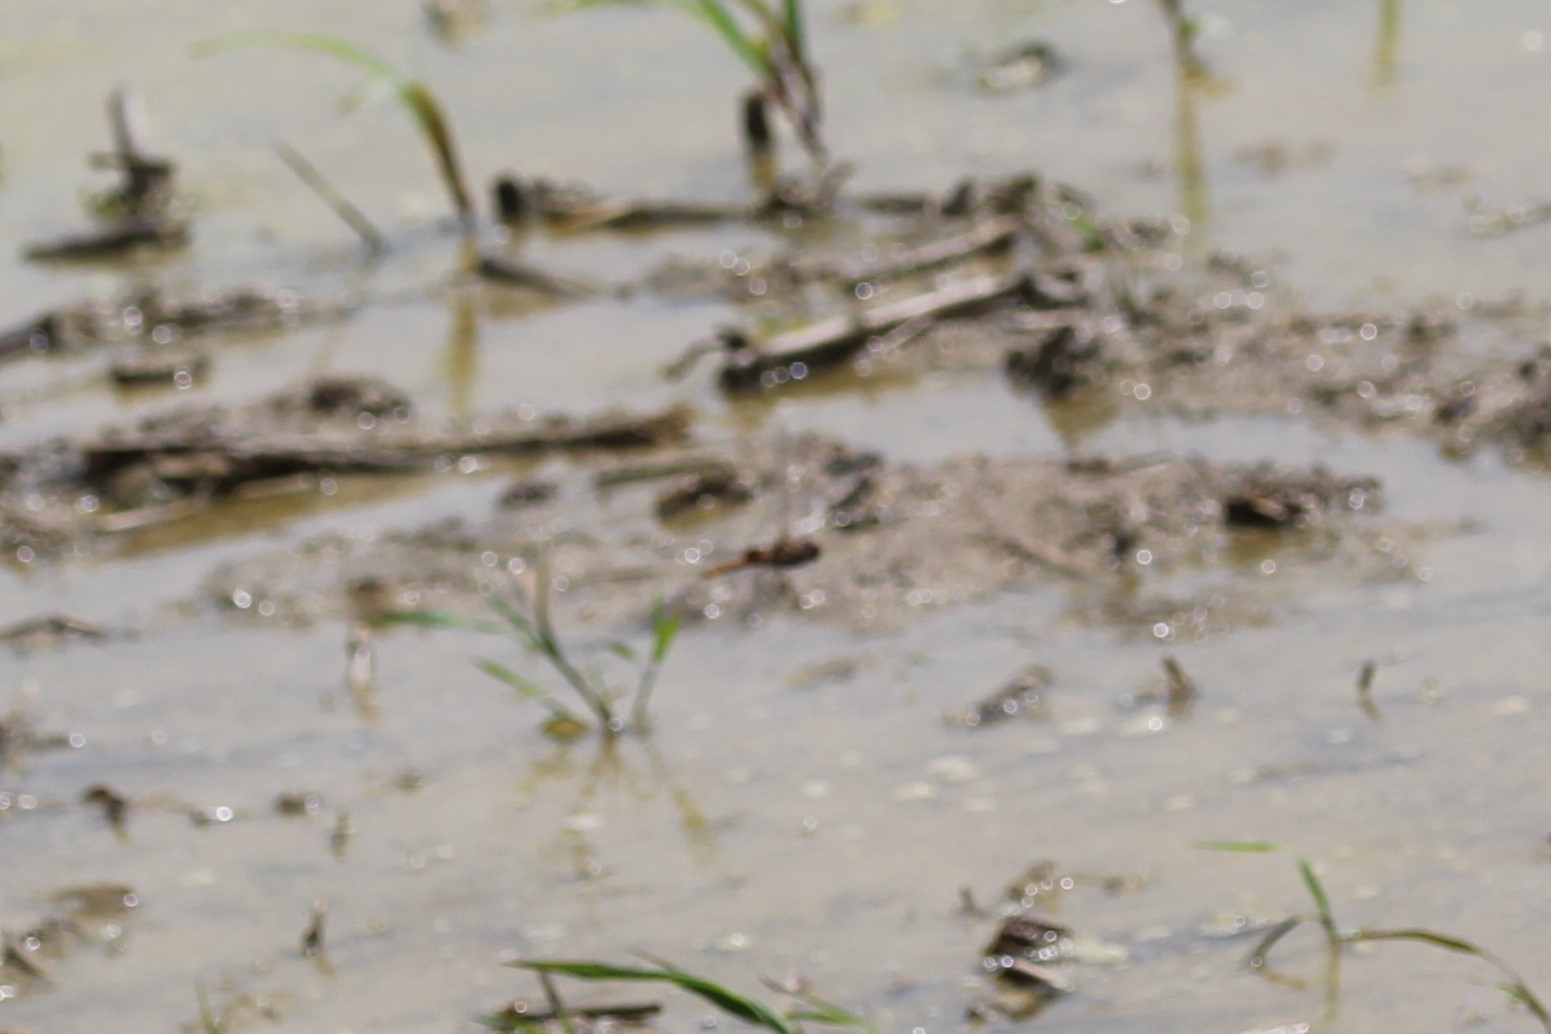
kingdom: Animalia
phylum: Arthropoda
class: Insecta
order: Odonata
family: Libellulidae
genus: Pantala
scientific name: Pantala hymenaea
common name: Spot-winged glider
